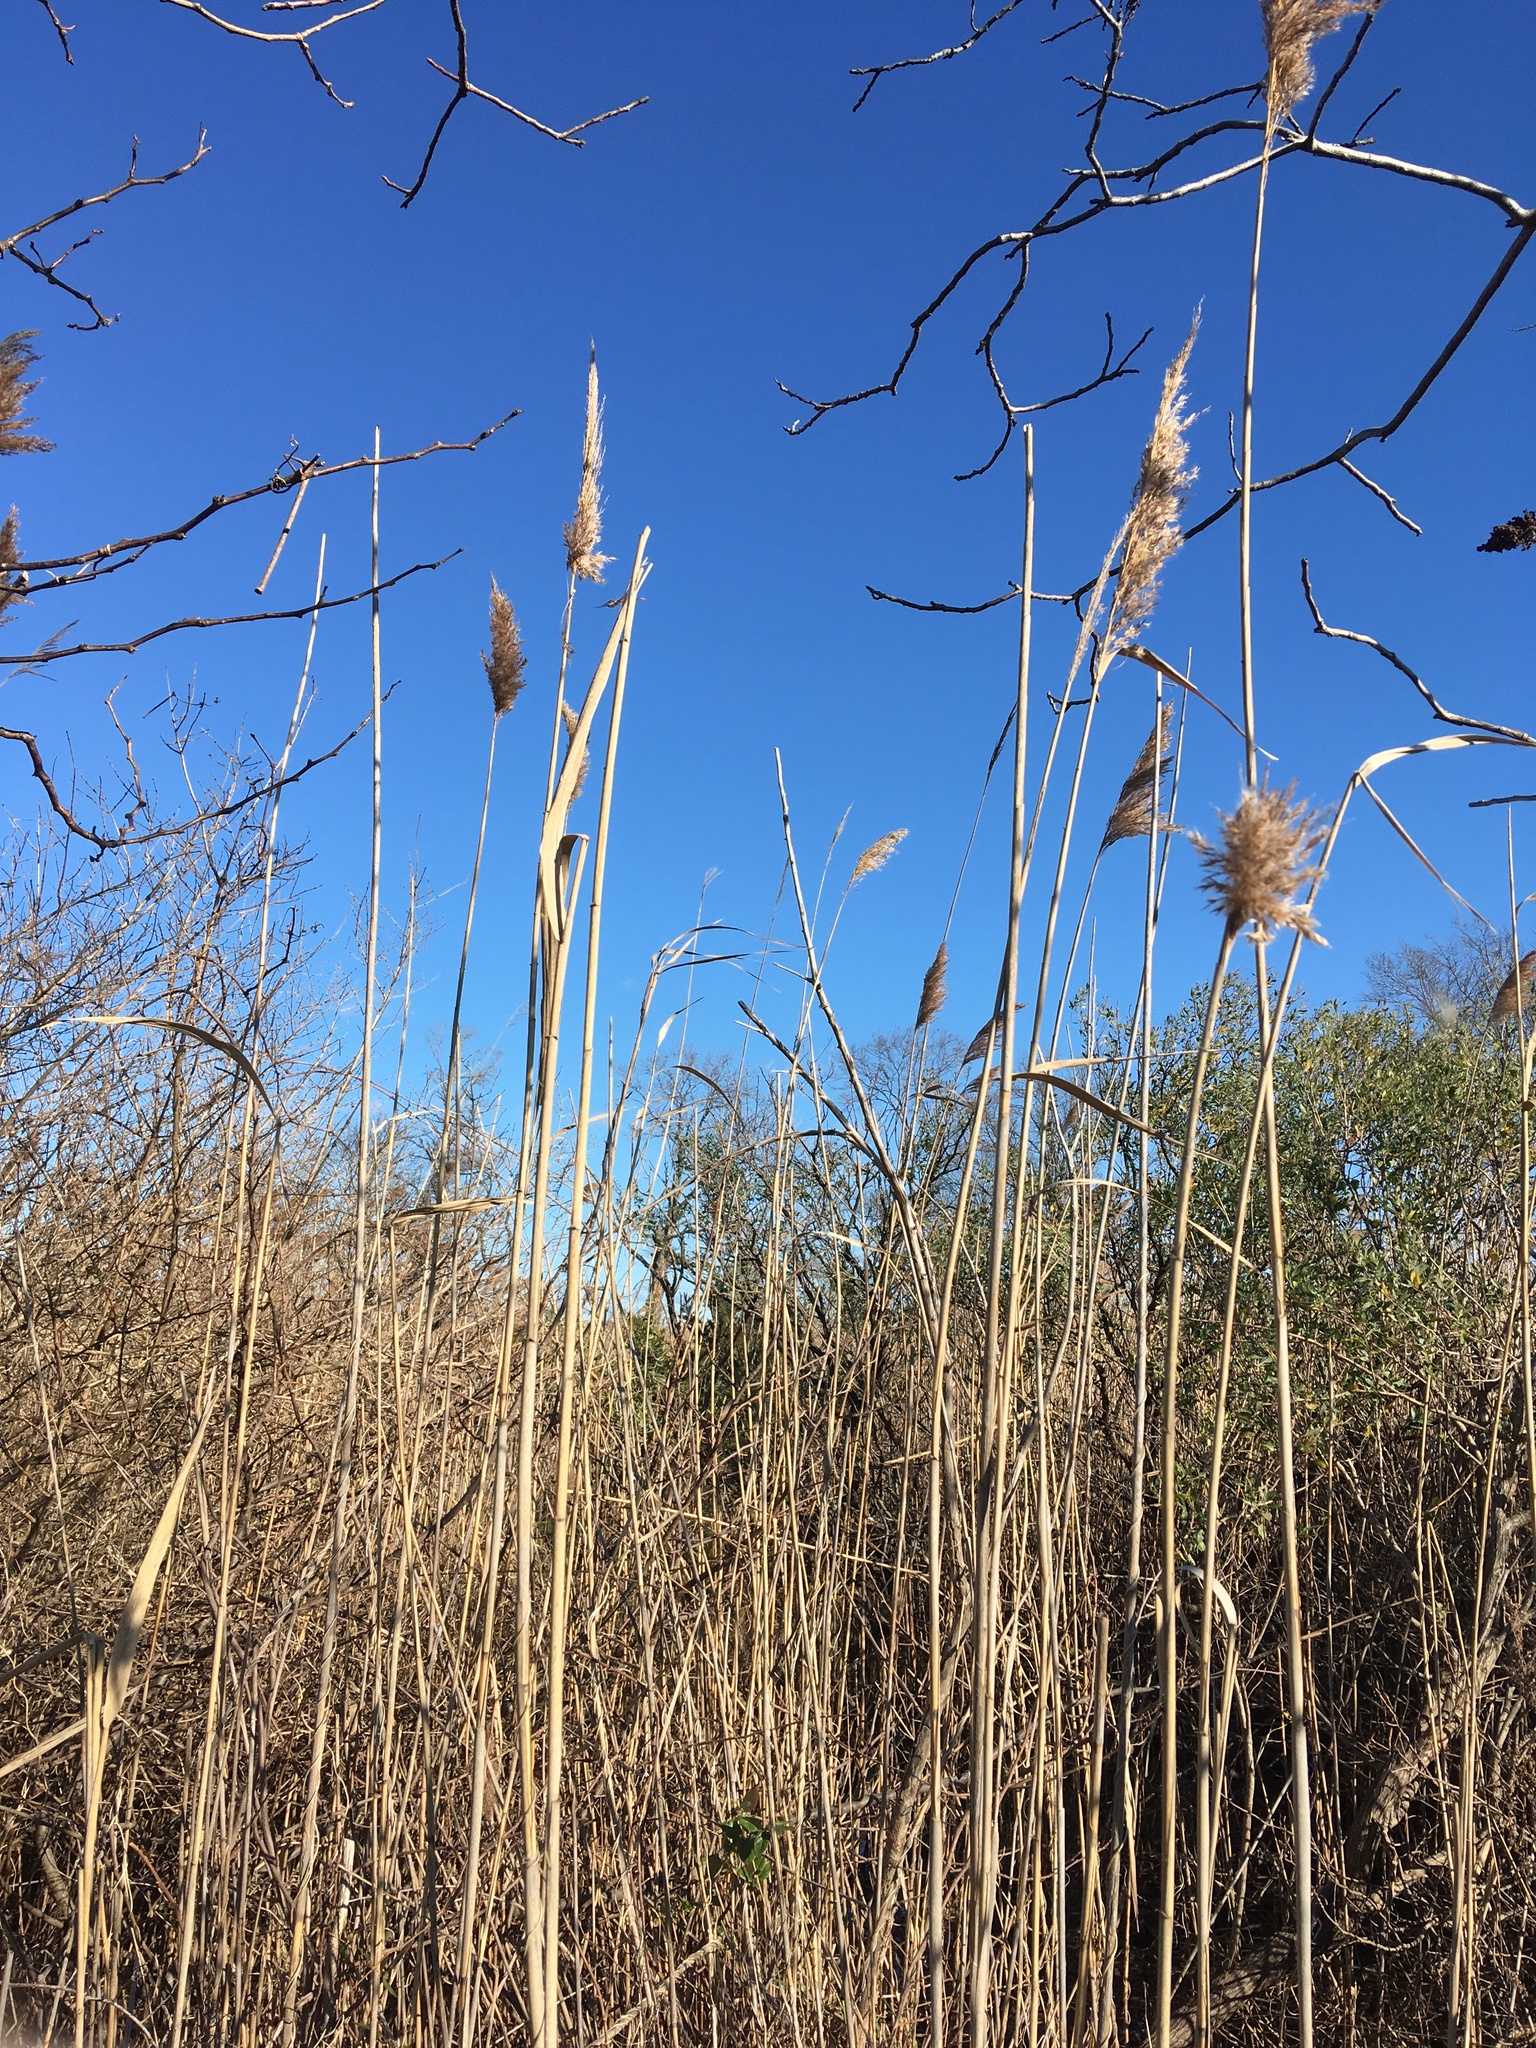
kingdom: Plantae
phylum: Tracheophyta
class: Liliopsida
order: Poales
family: Poaceae
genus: Phragmites
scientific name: Phragmites australis
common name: Common reed
